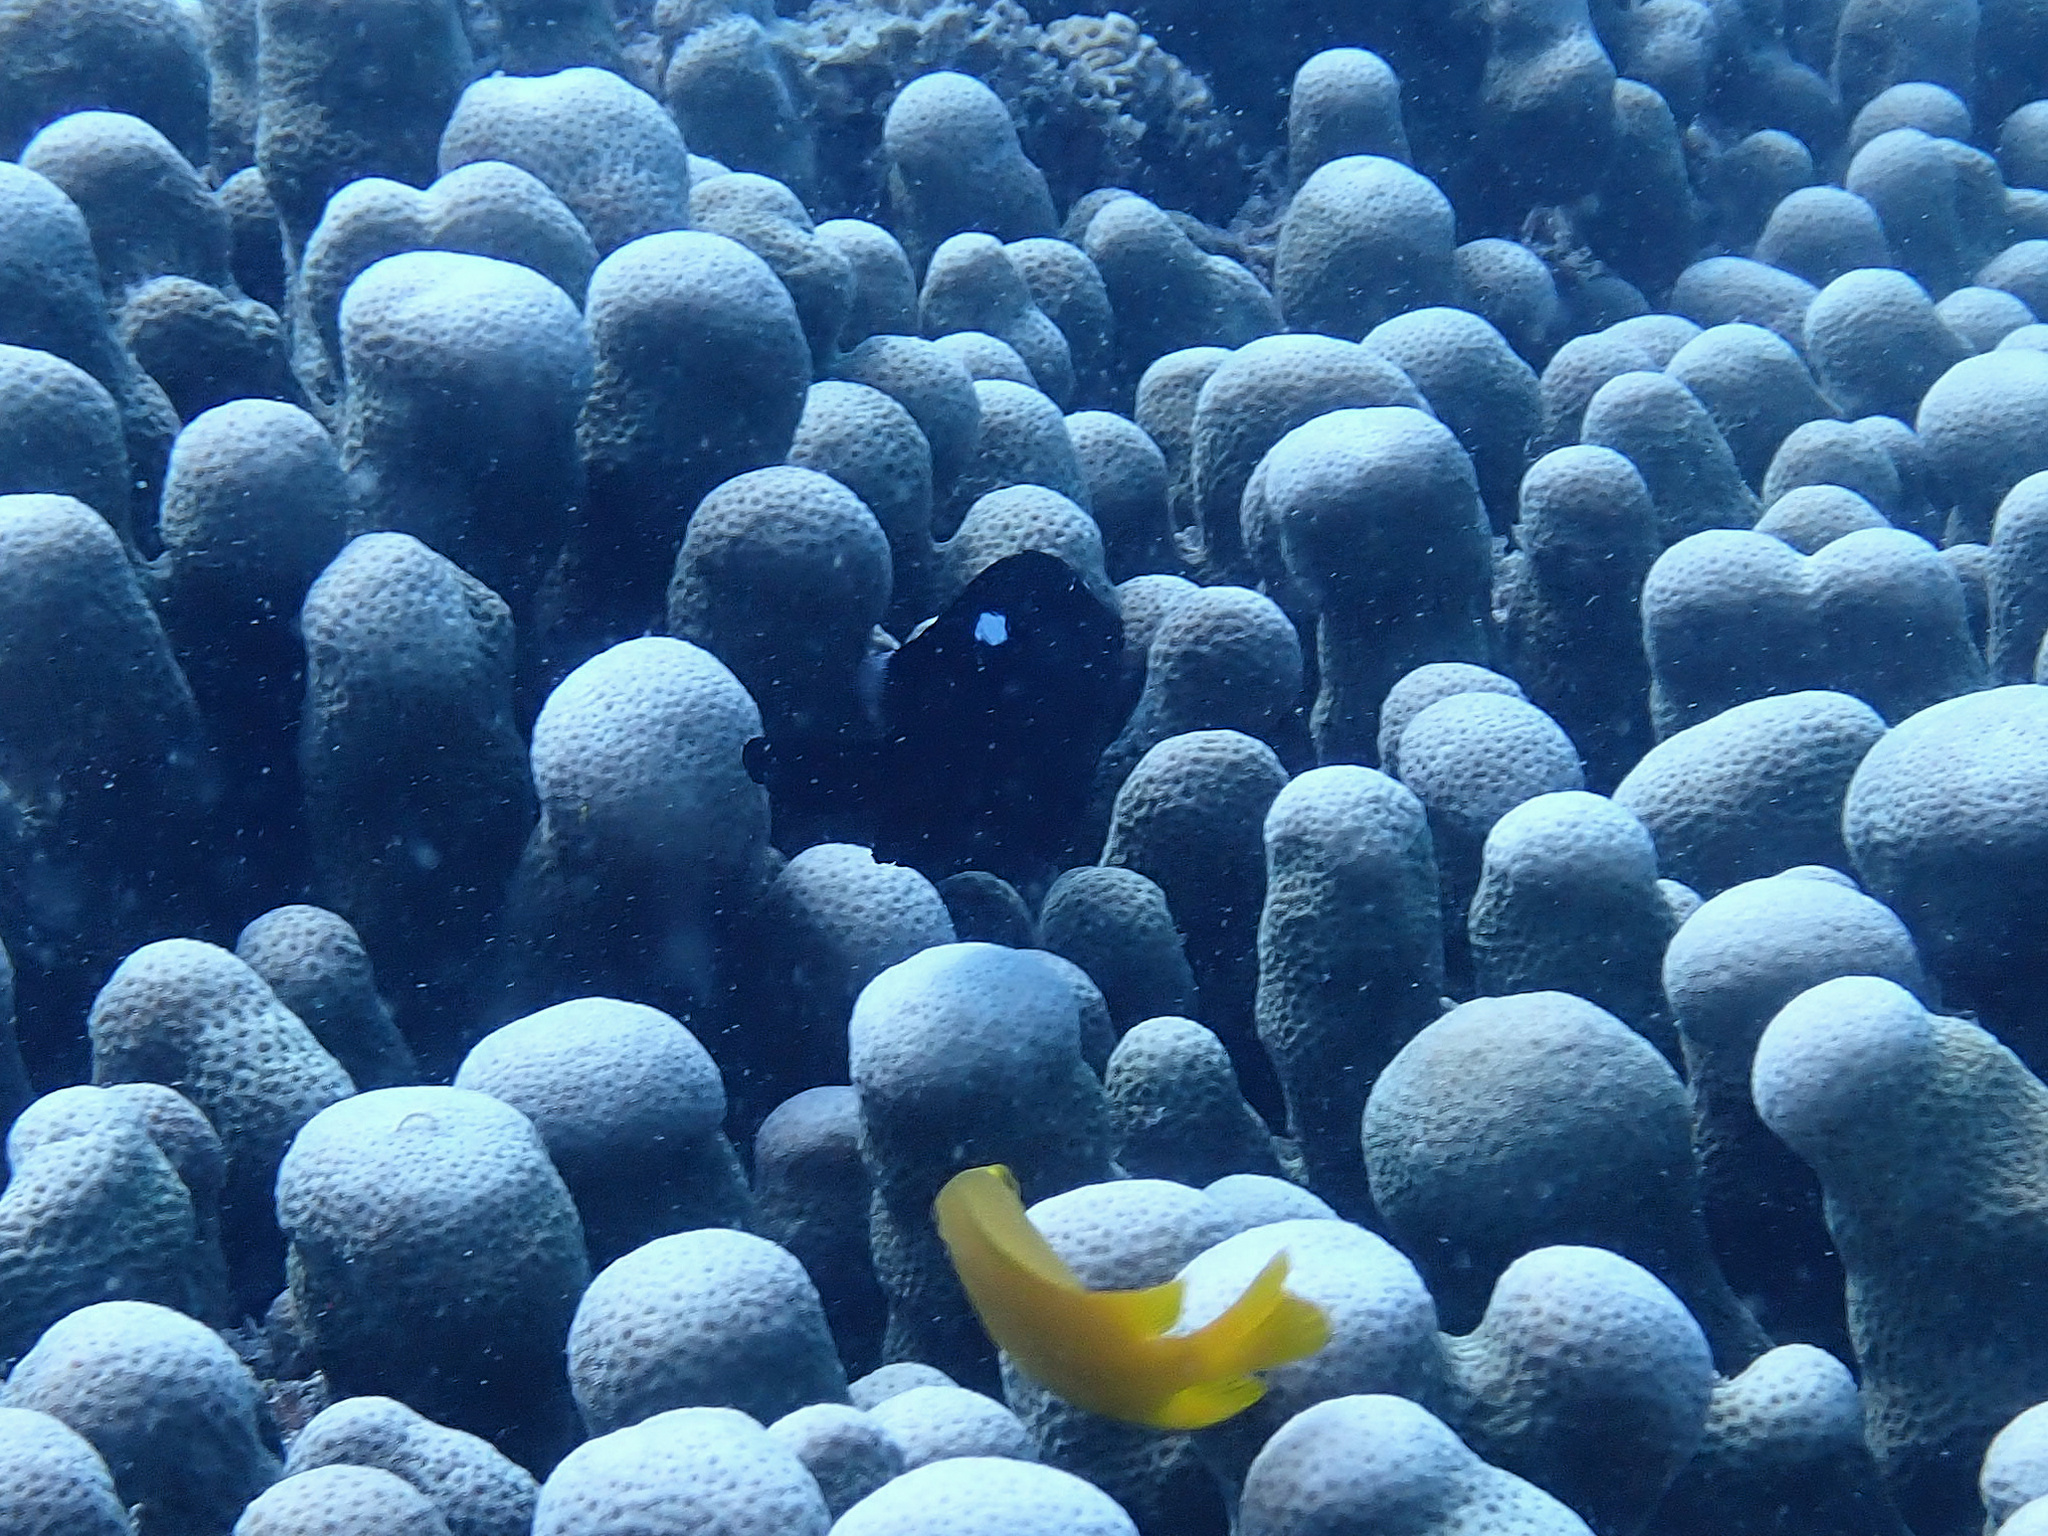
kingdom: Animalia
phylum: Chordata
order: Perciformes
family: Pomacentridae
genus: Dascyllus
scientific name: Dascyllus trimaculatus
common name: Threespot dascyllus
